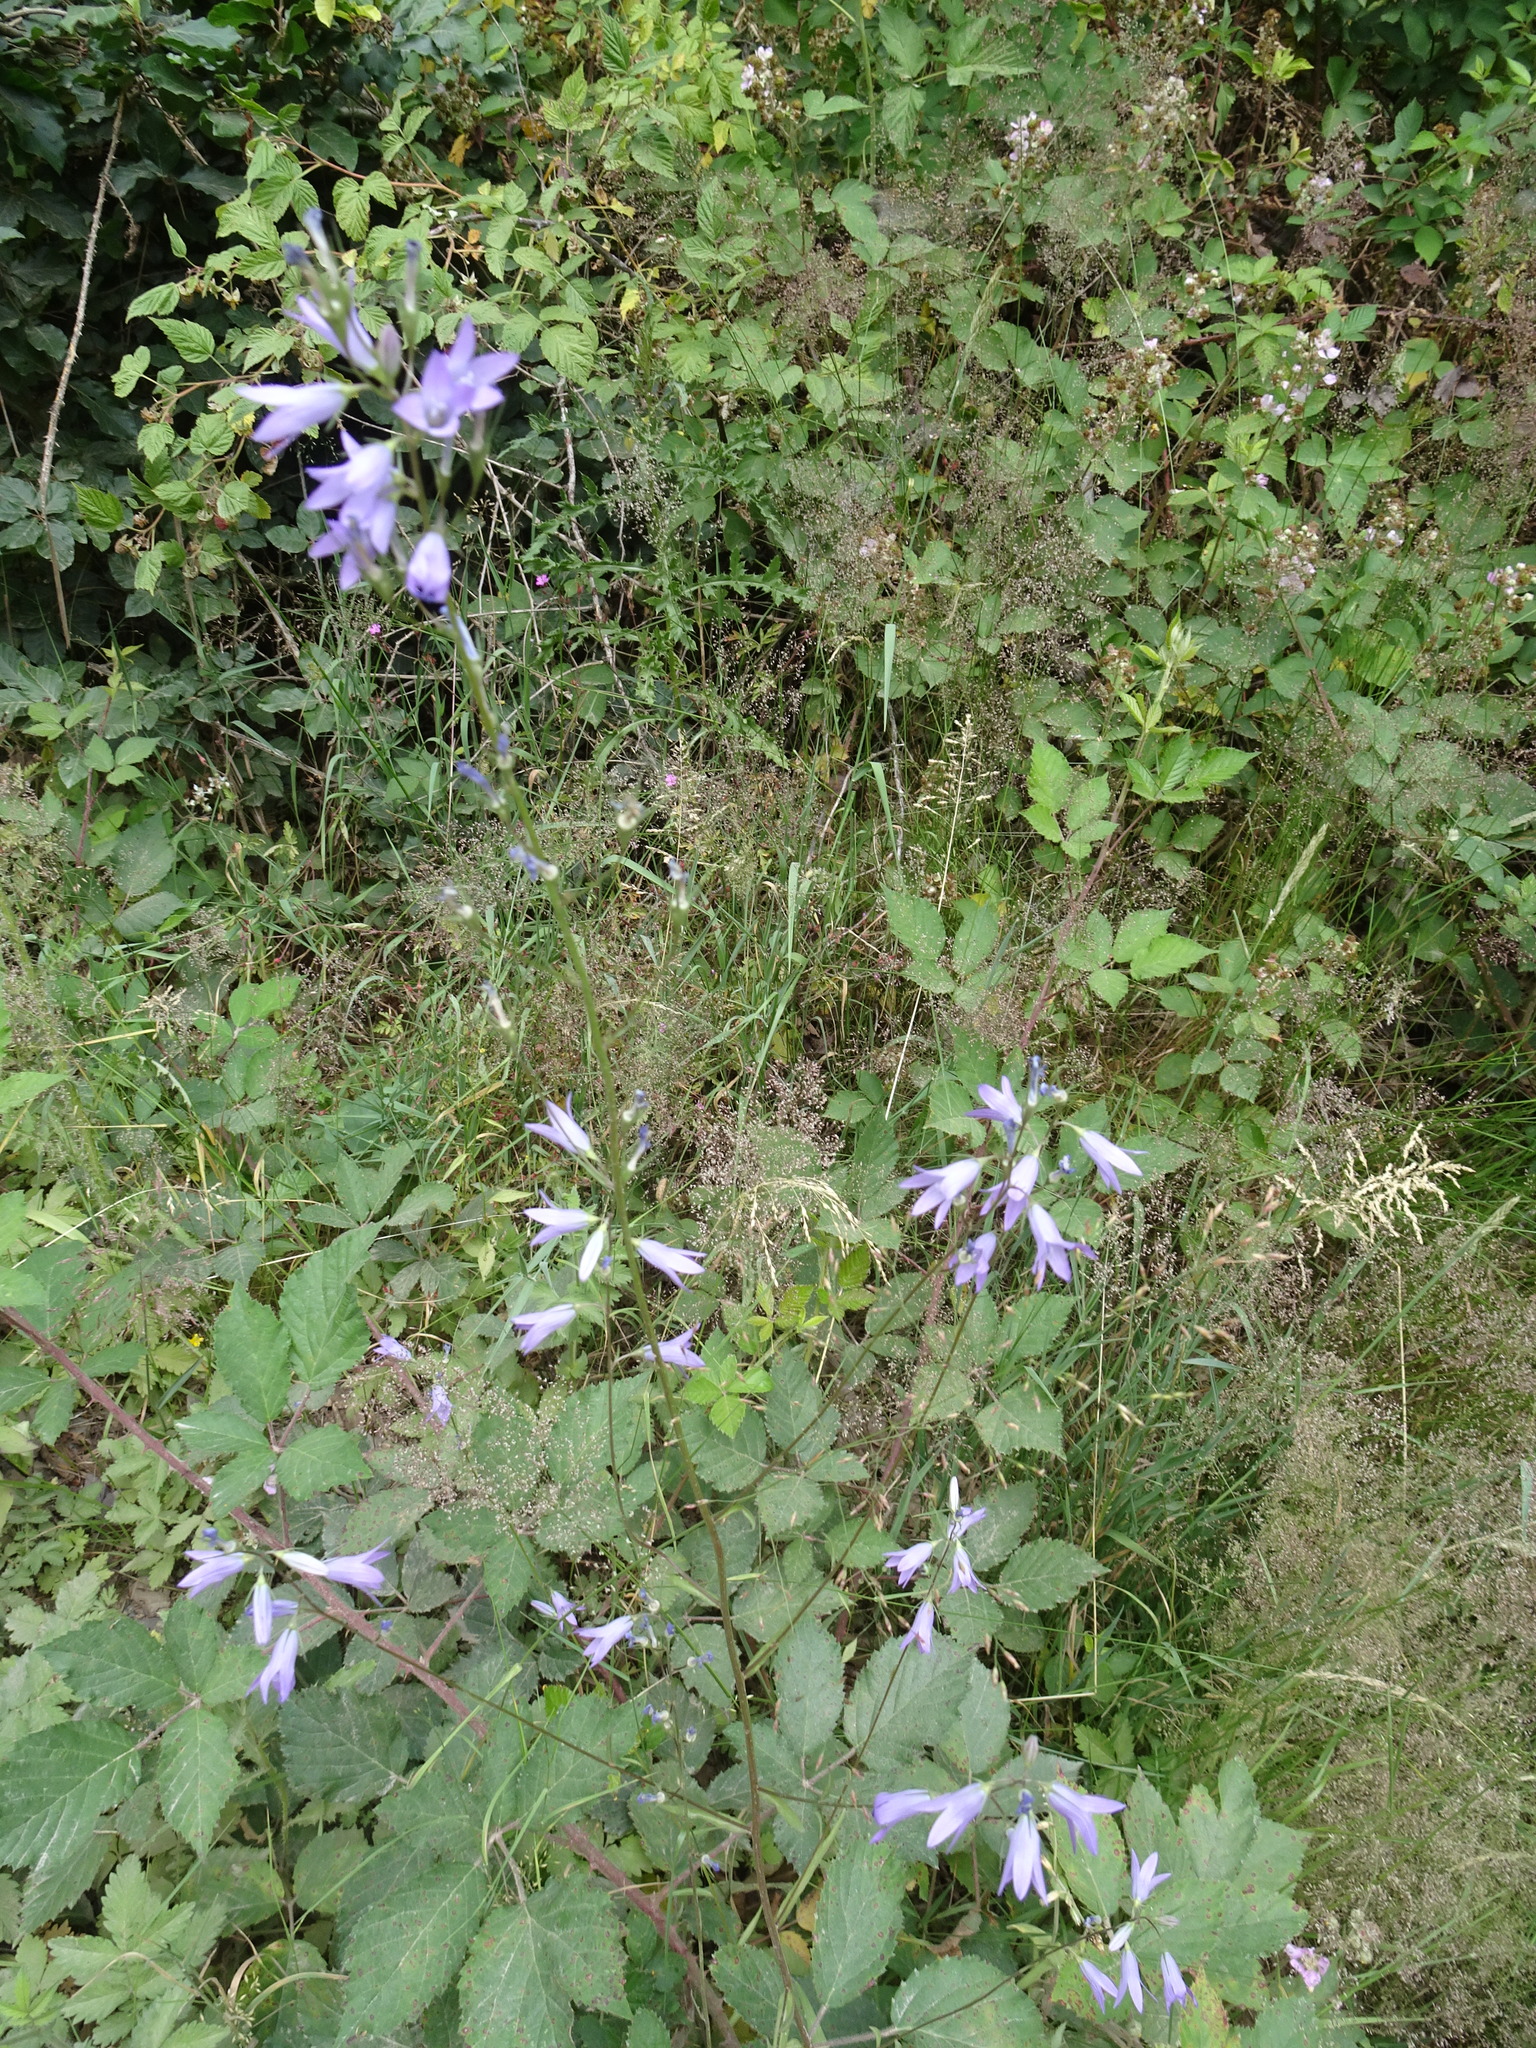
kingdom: Plantae
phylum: Tracheophyta
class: Magnoliopsida
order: Asterales
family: Campanulaceae
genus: Campanula
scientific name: Campanula rapunculus
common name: Rampion bellflower
